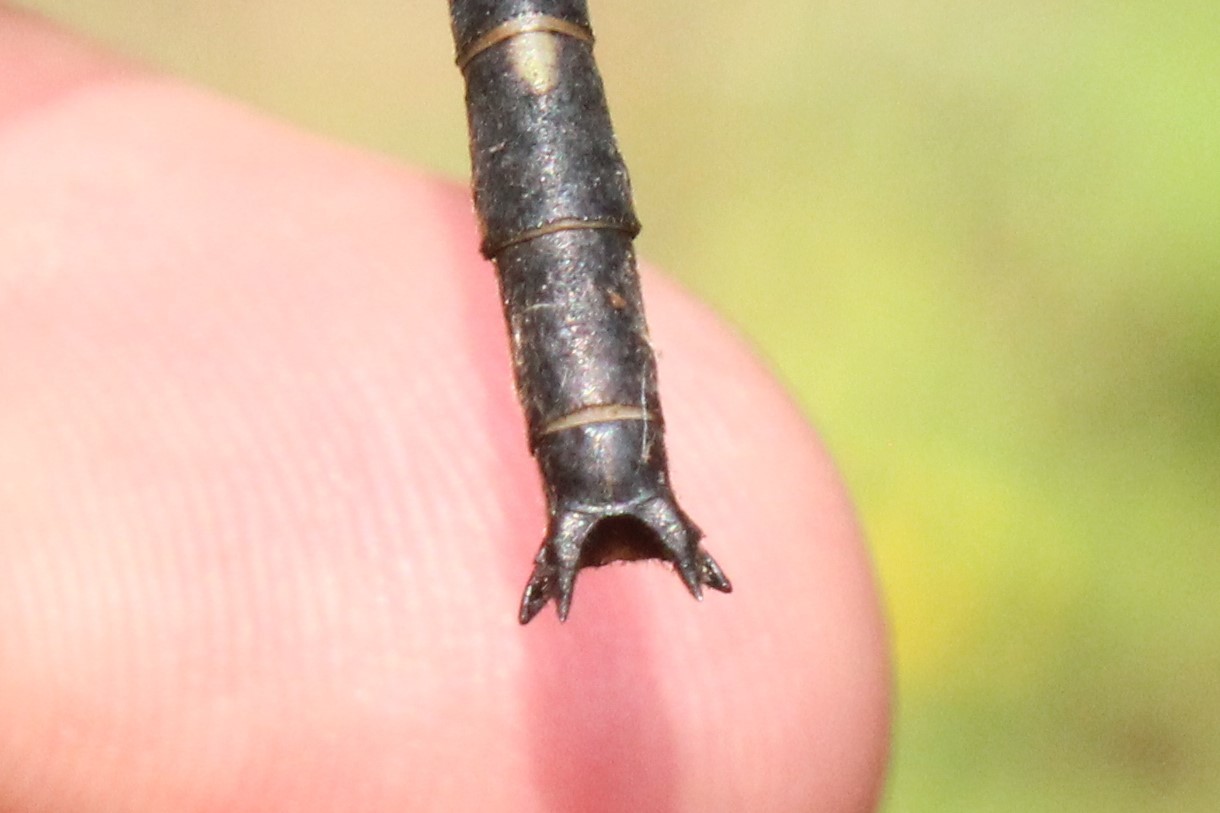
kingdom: Animalia
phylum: Arthropoda
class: Insecta
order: Odonata
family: Gomphidae
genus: Phanogomphus
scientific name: Phanogomphus spicatus
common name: Dusky clubtail
